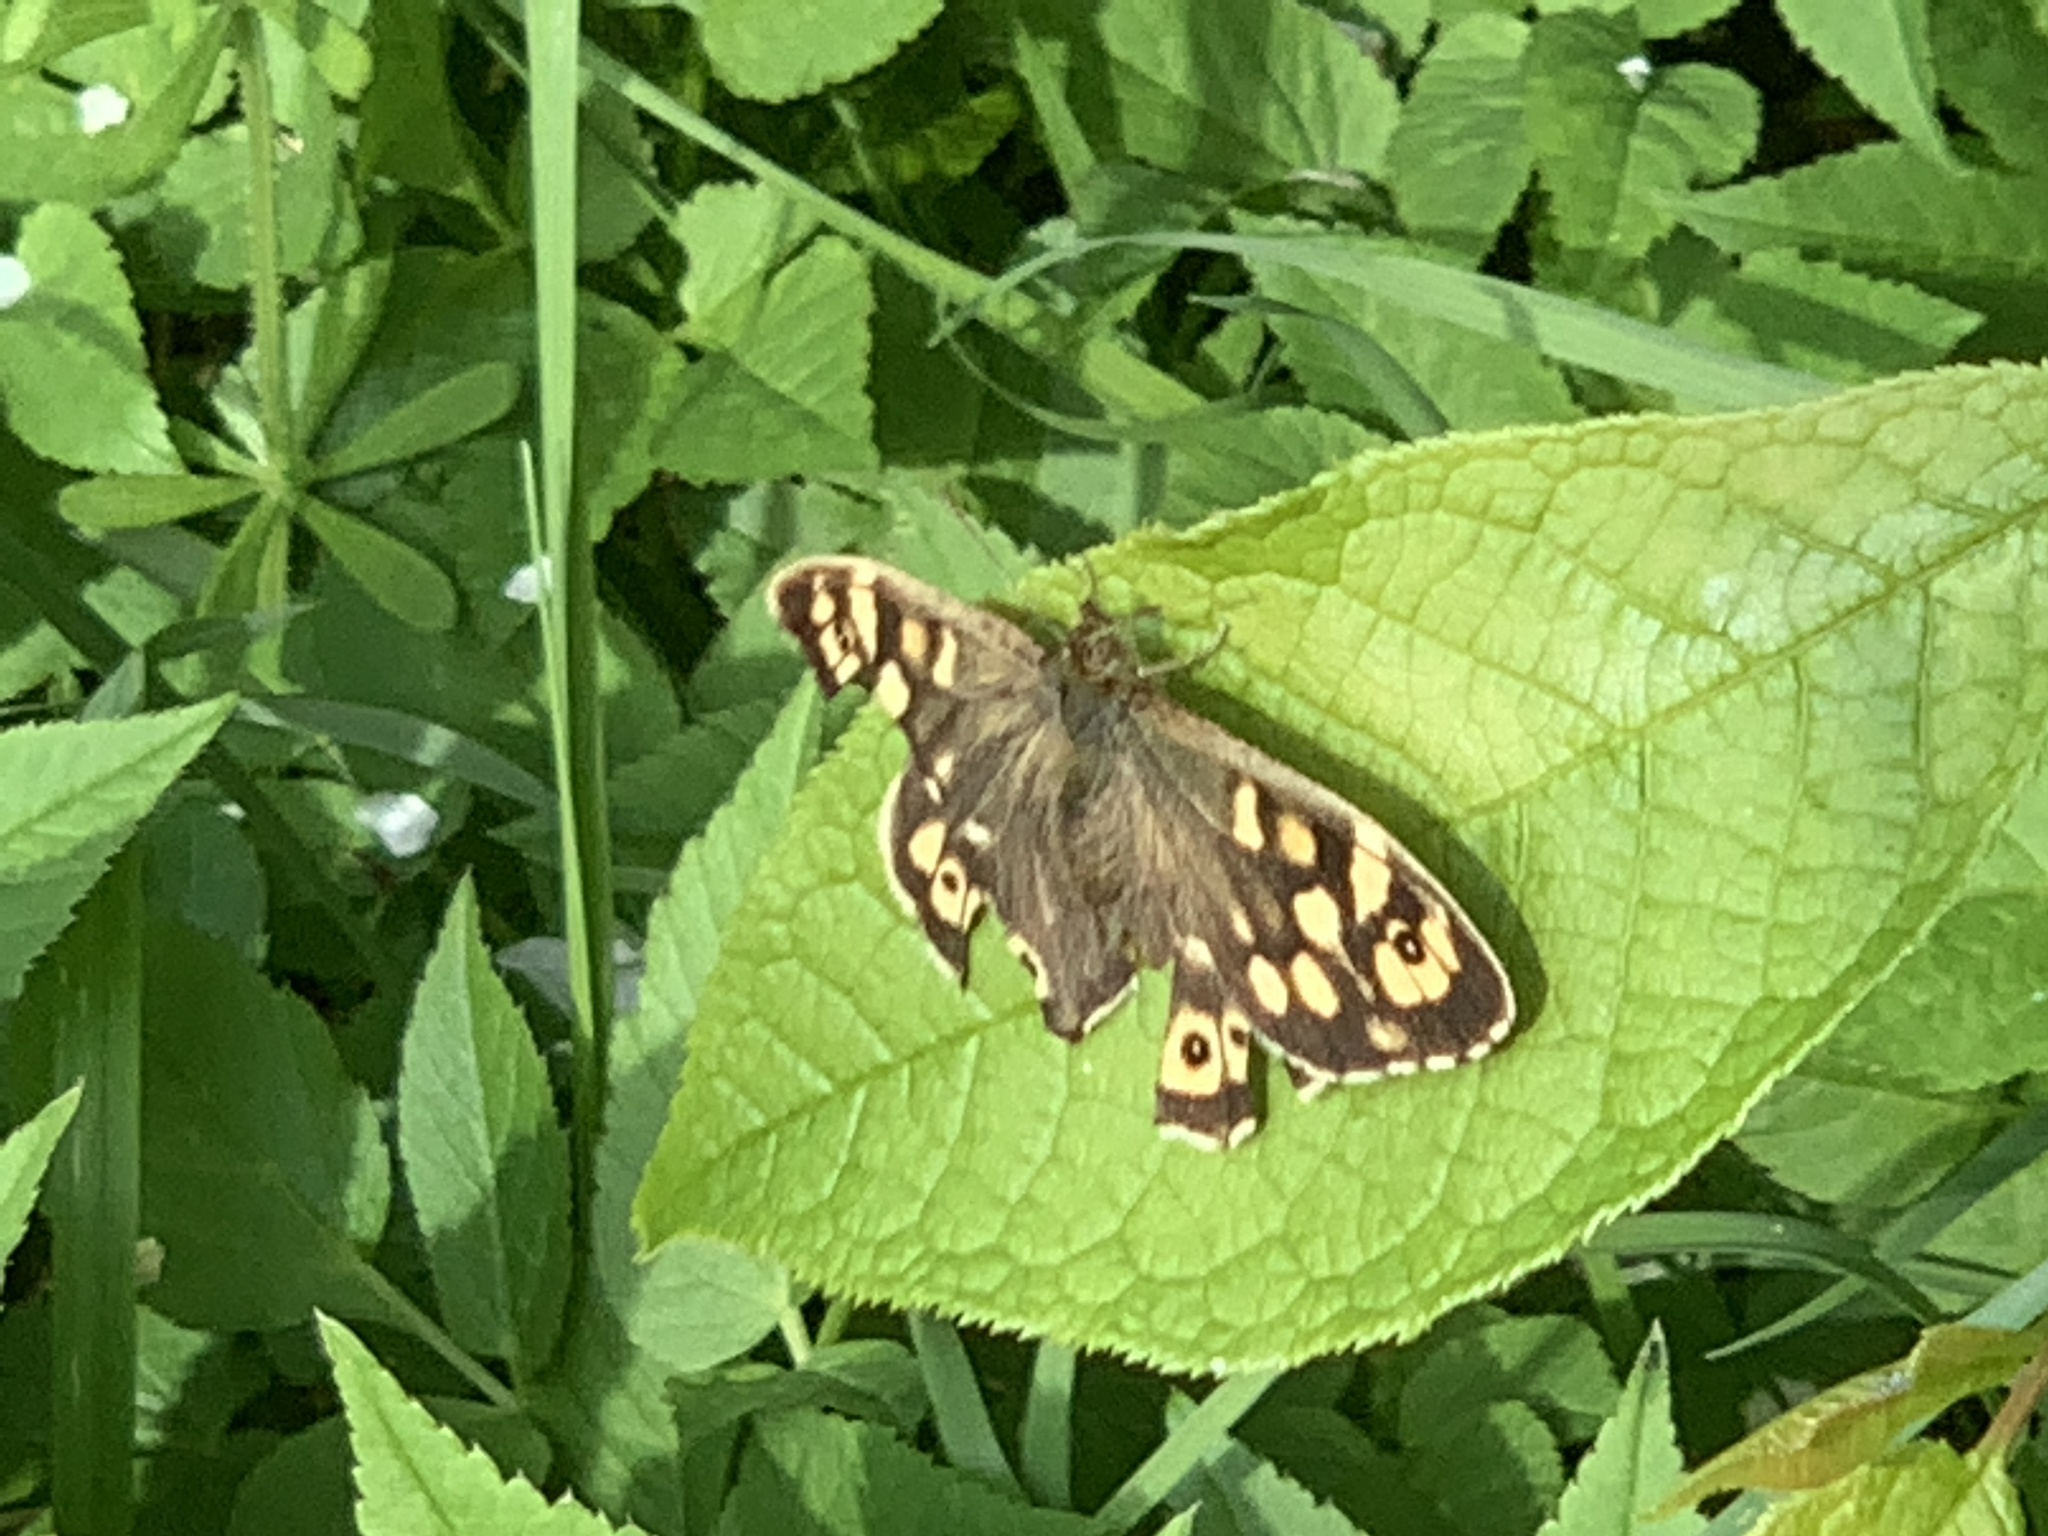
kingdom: Animalia
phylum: Arthropoda
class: Insecta
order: Lepidoptera
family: Nymphalidae
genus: Pararge
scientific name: Pararge aegeria
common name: Speckled wood
